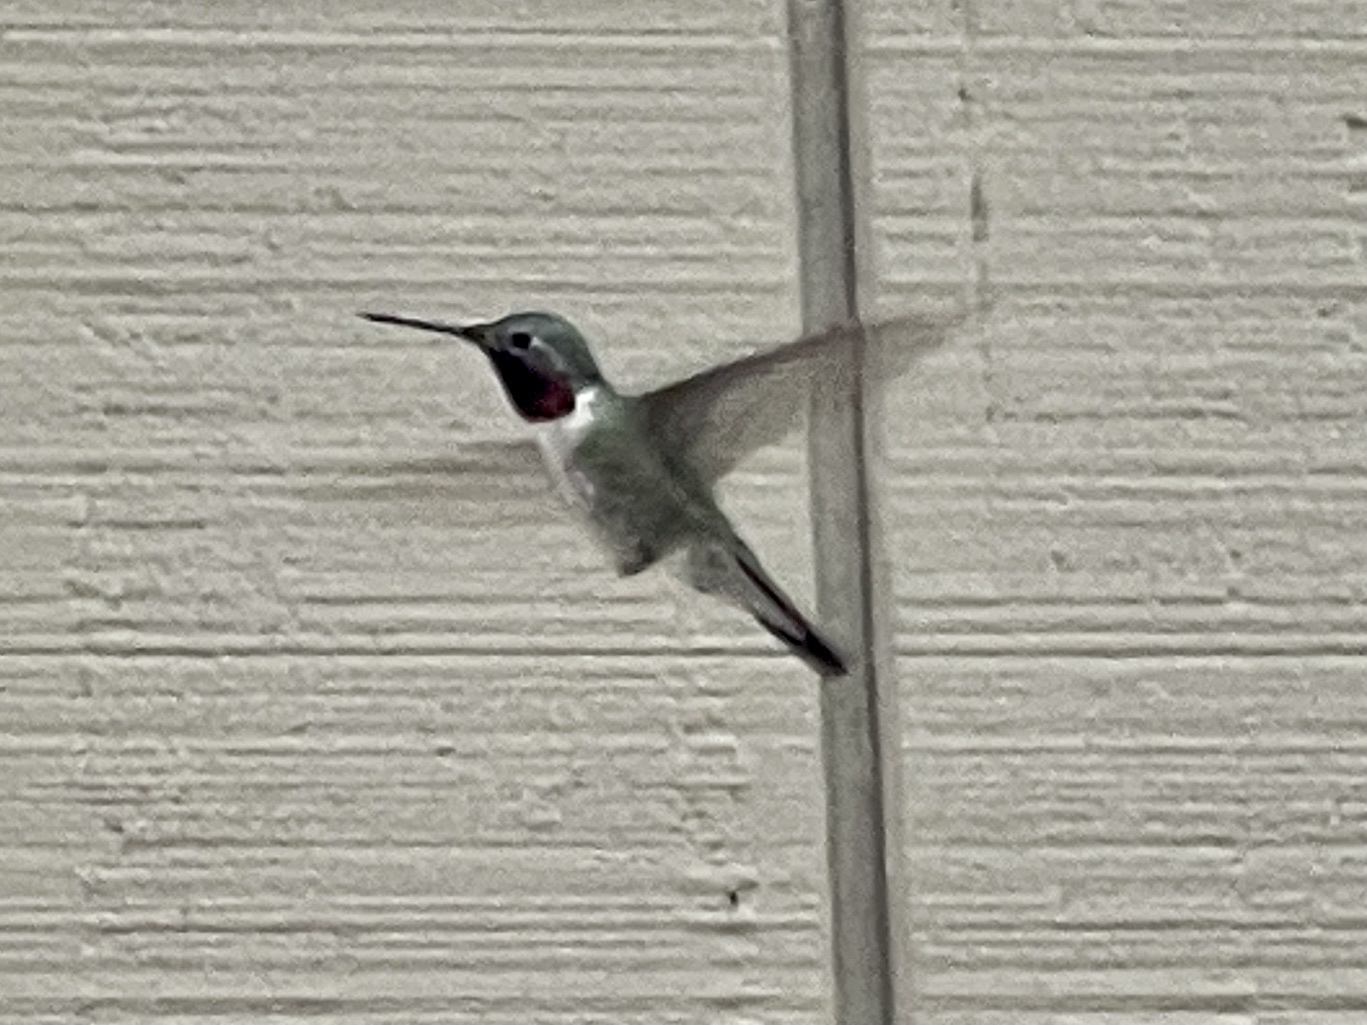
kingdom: Animalia
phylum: Chordata
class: Aves
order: Apodiformes
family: Trochilidae
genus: Selasphorus
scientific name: Selasphorus platycercus
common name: Broad-tailed hummingbird
